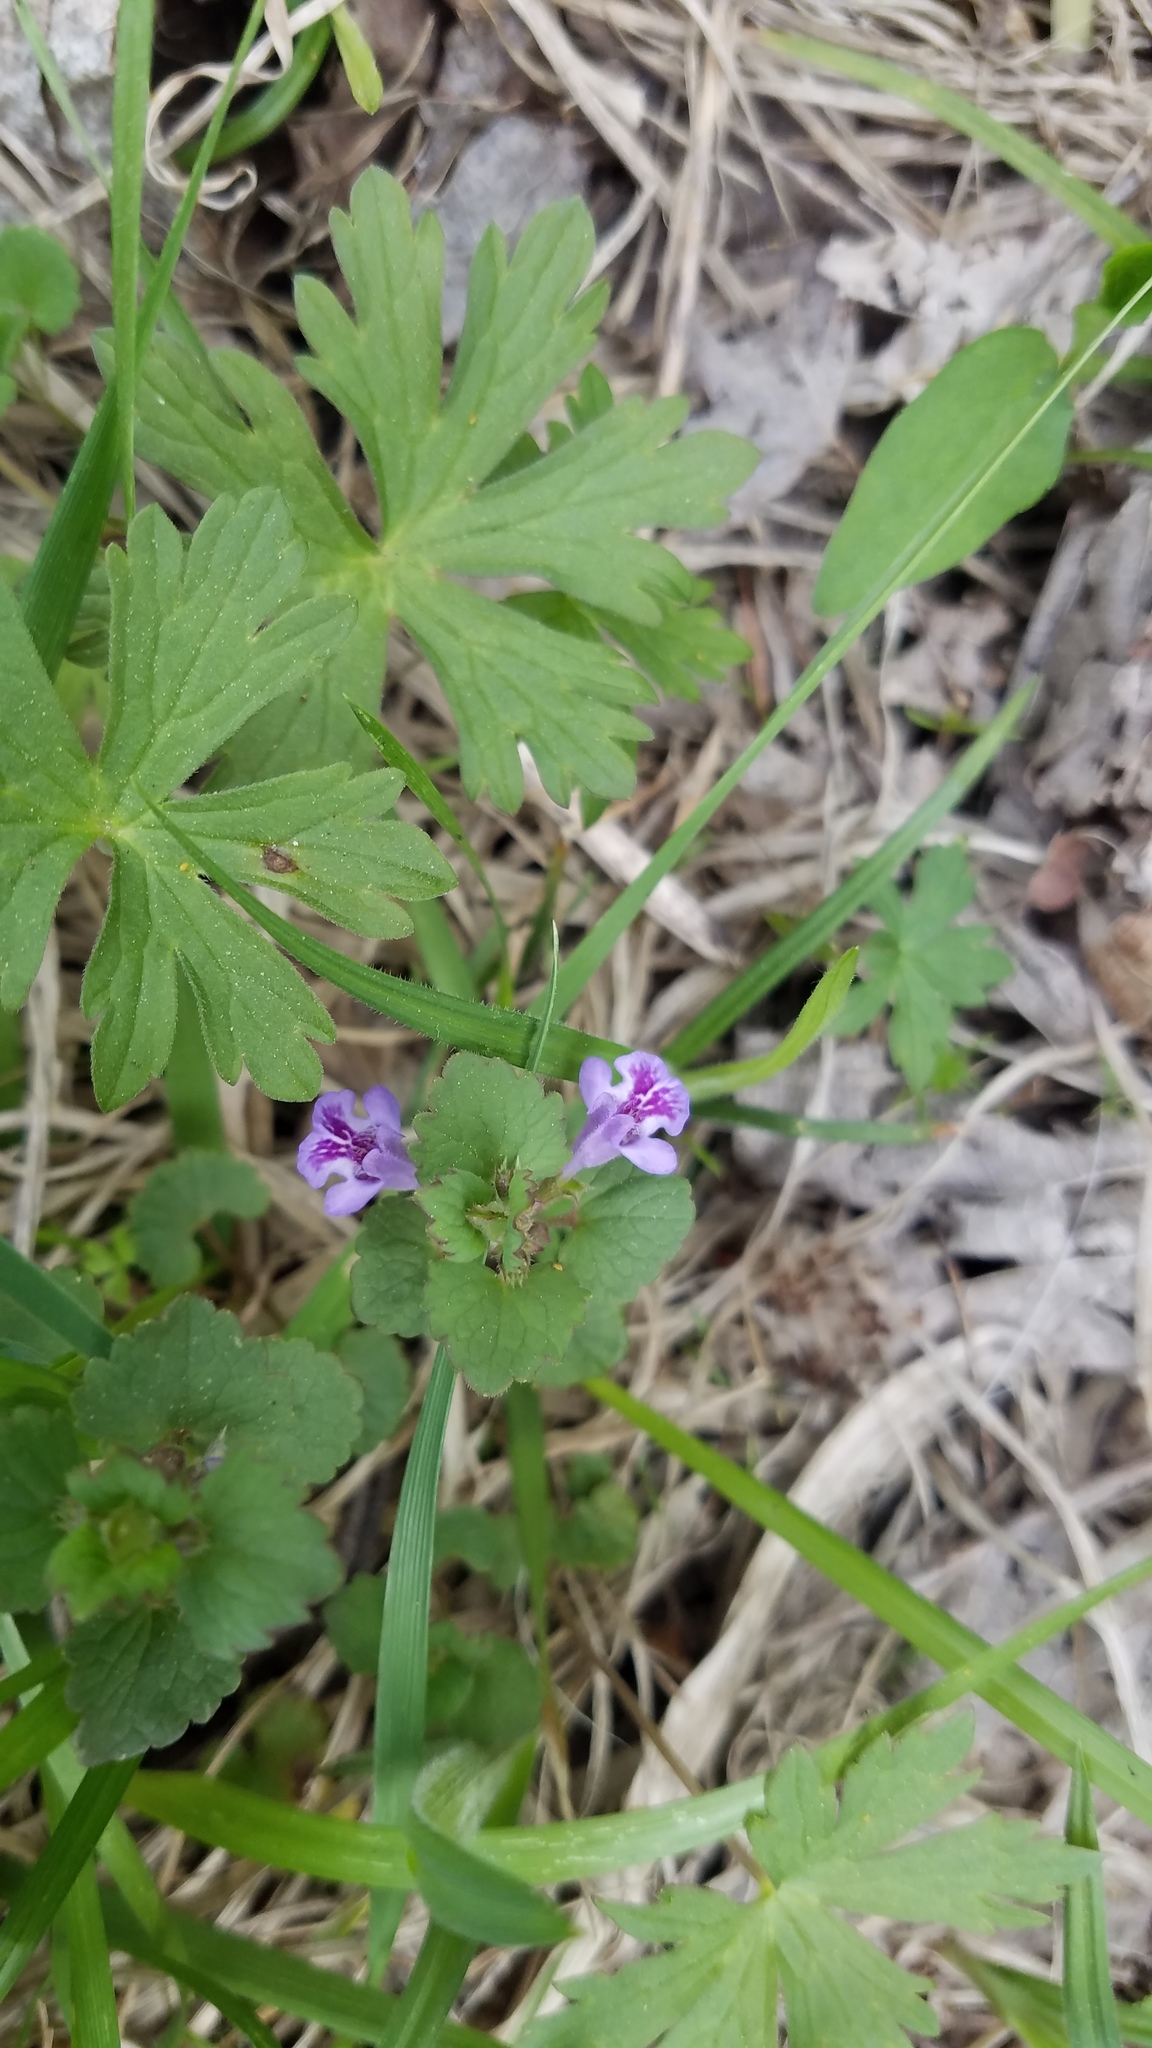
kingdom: Plantae
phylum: Tracheophyta
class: Magnoliopsida
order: Lamiales
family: Lamiaceae
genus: Glechoma
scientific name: Glechoma hederacea
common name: Ground ivy
